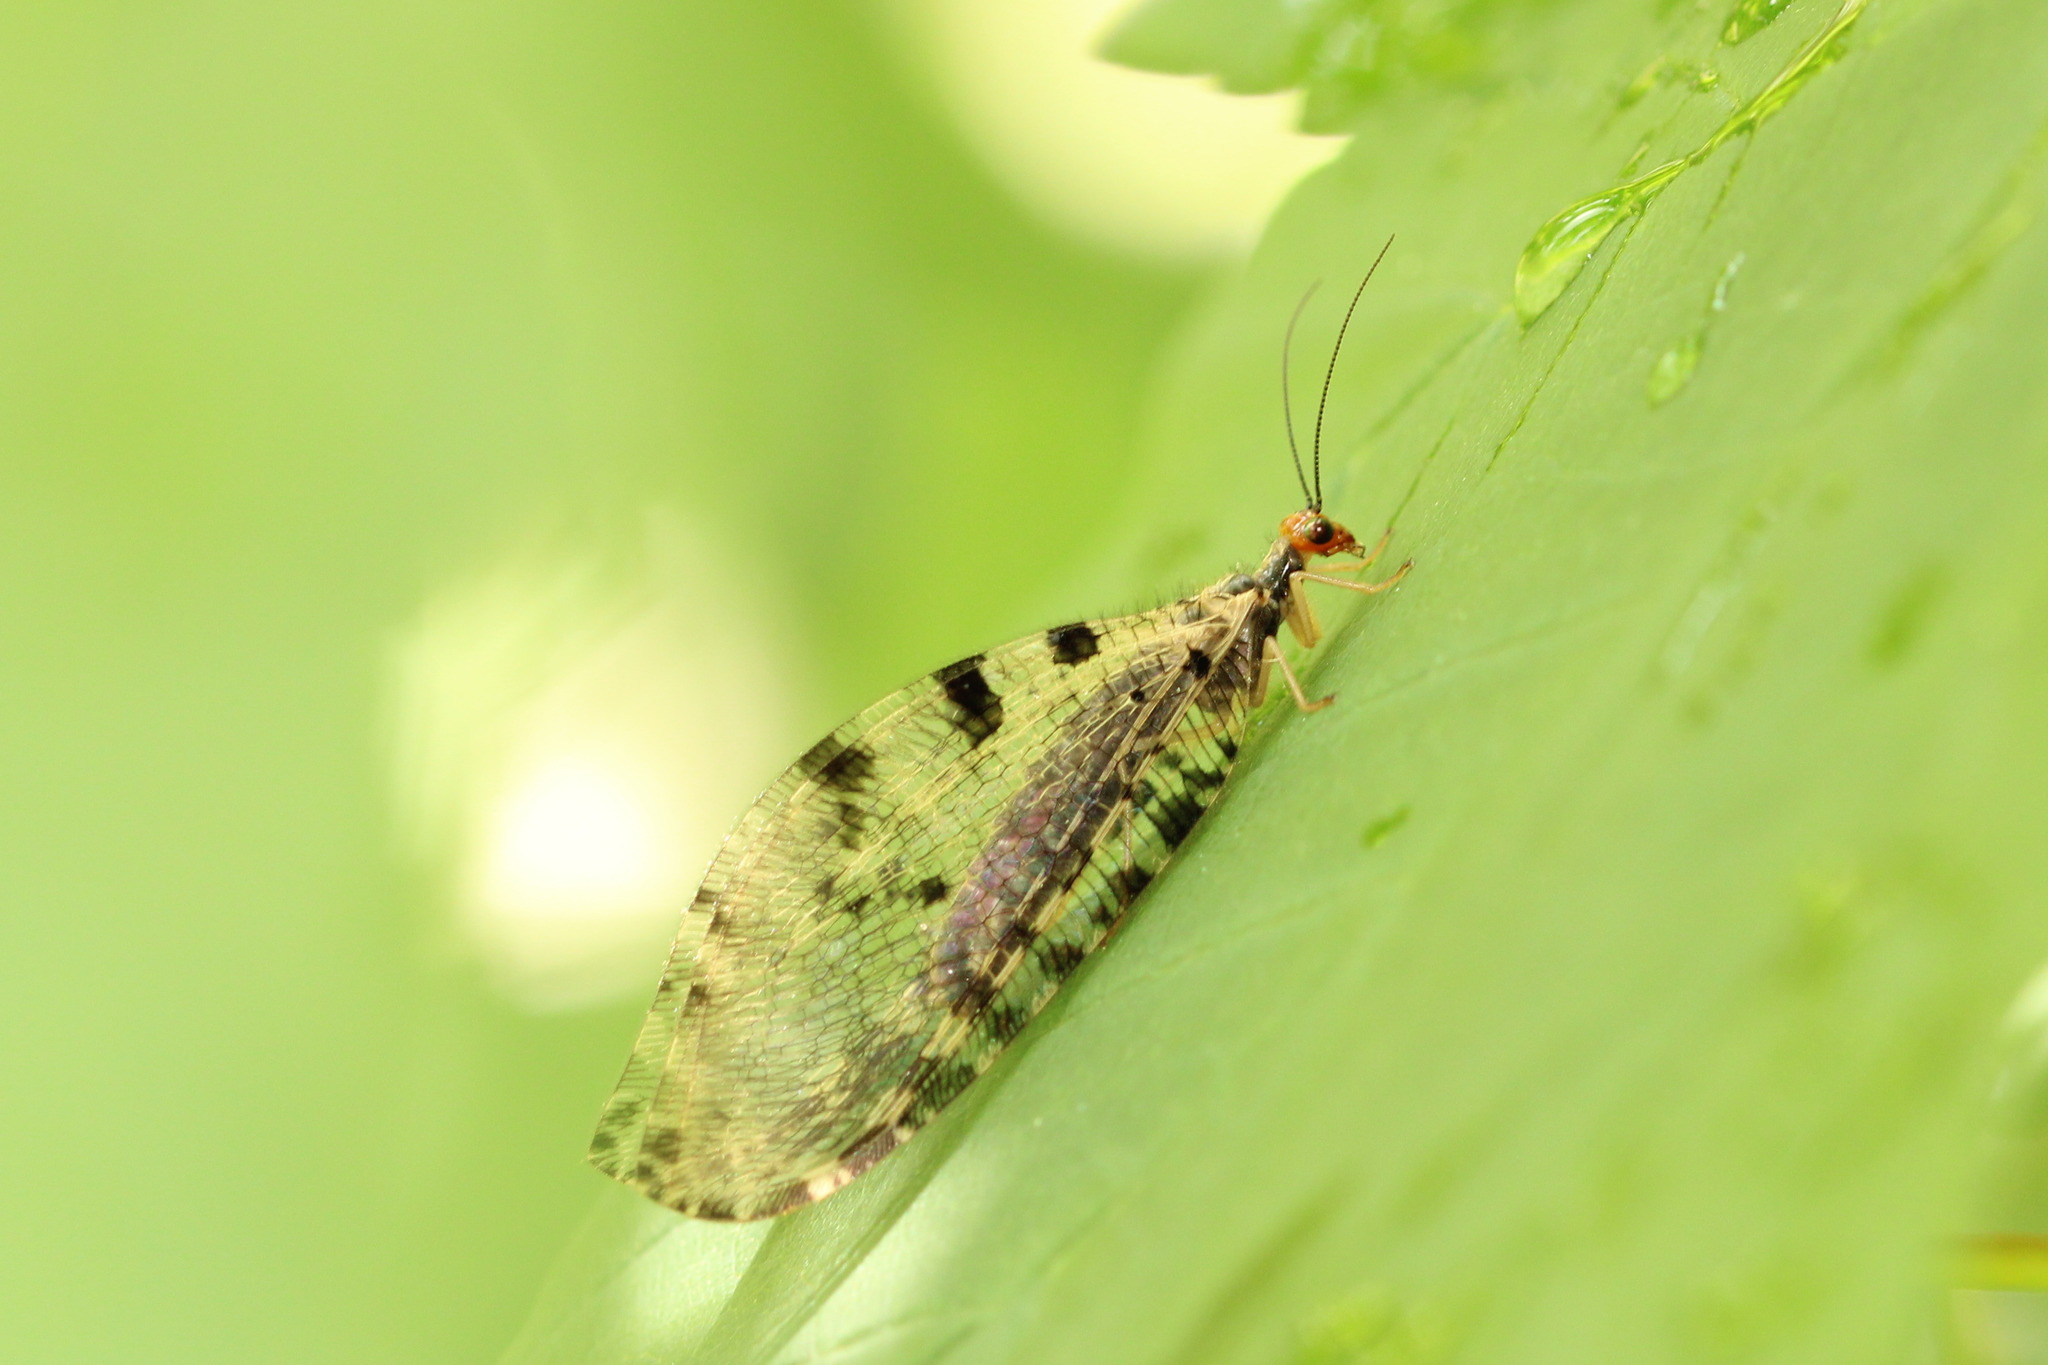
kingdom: Animalia
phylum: Arthropoda
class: Insecta
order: Neuroptera
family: Osmylidae
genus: Osmylus
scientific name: Osmylus fulvicephalus
